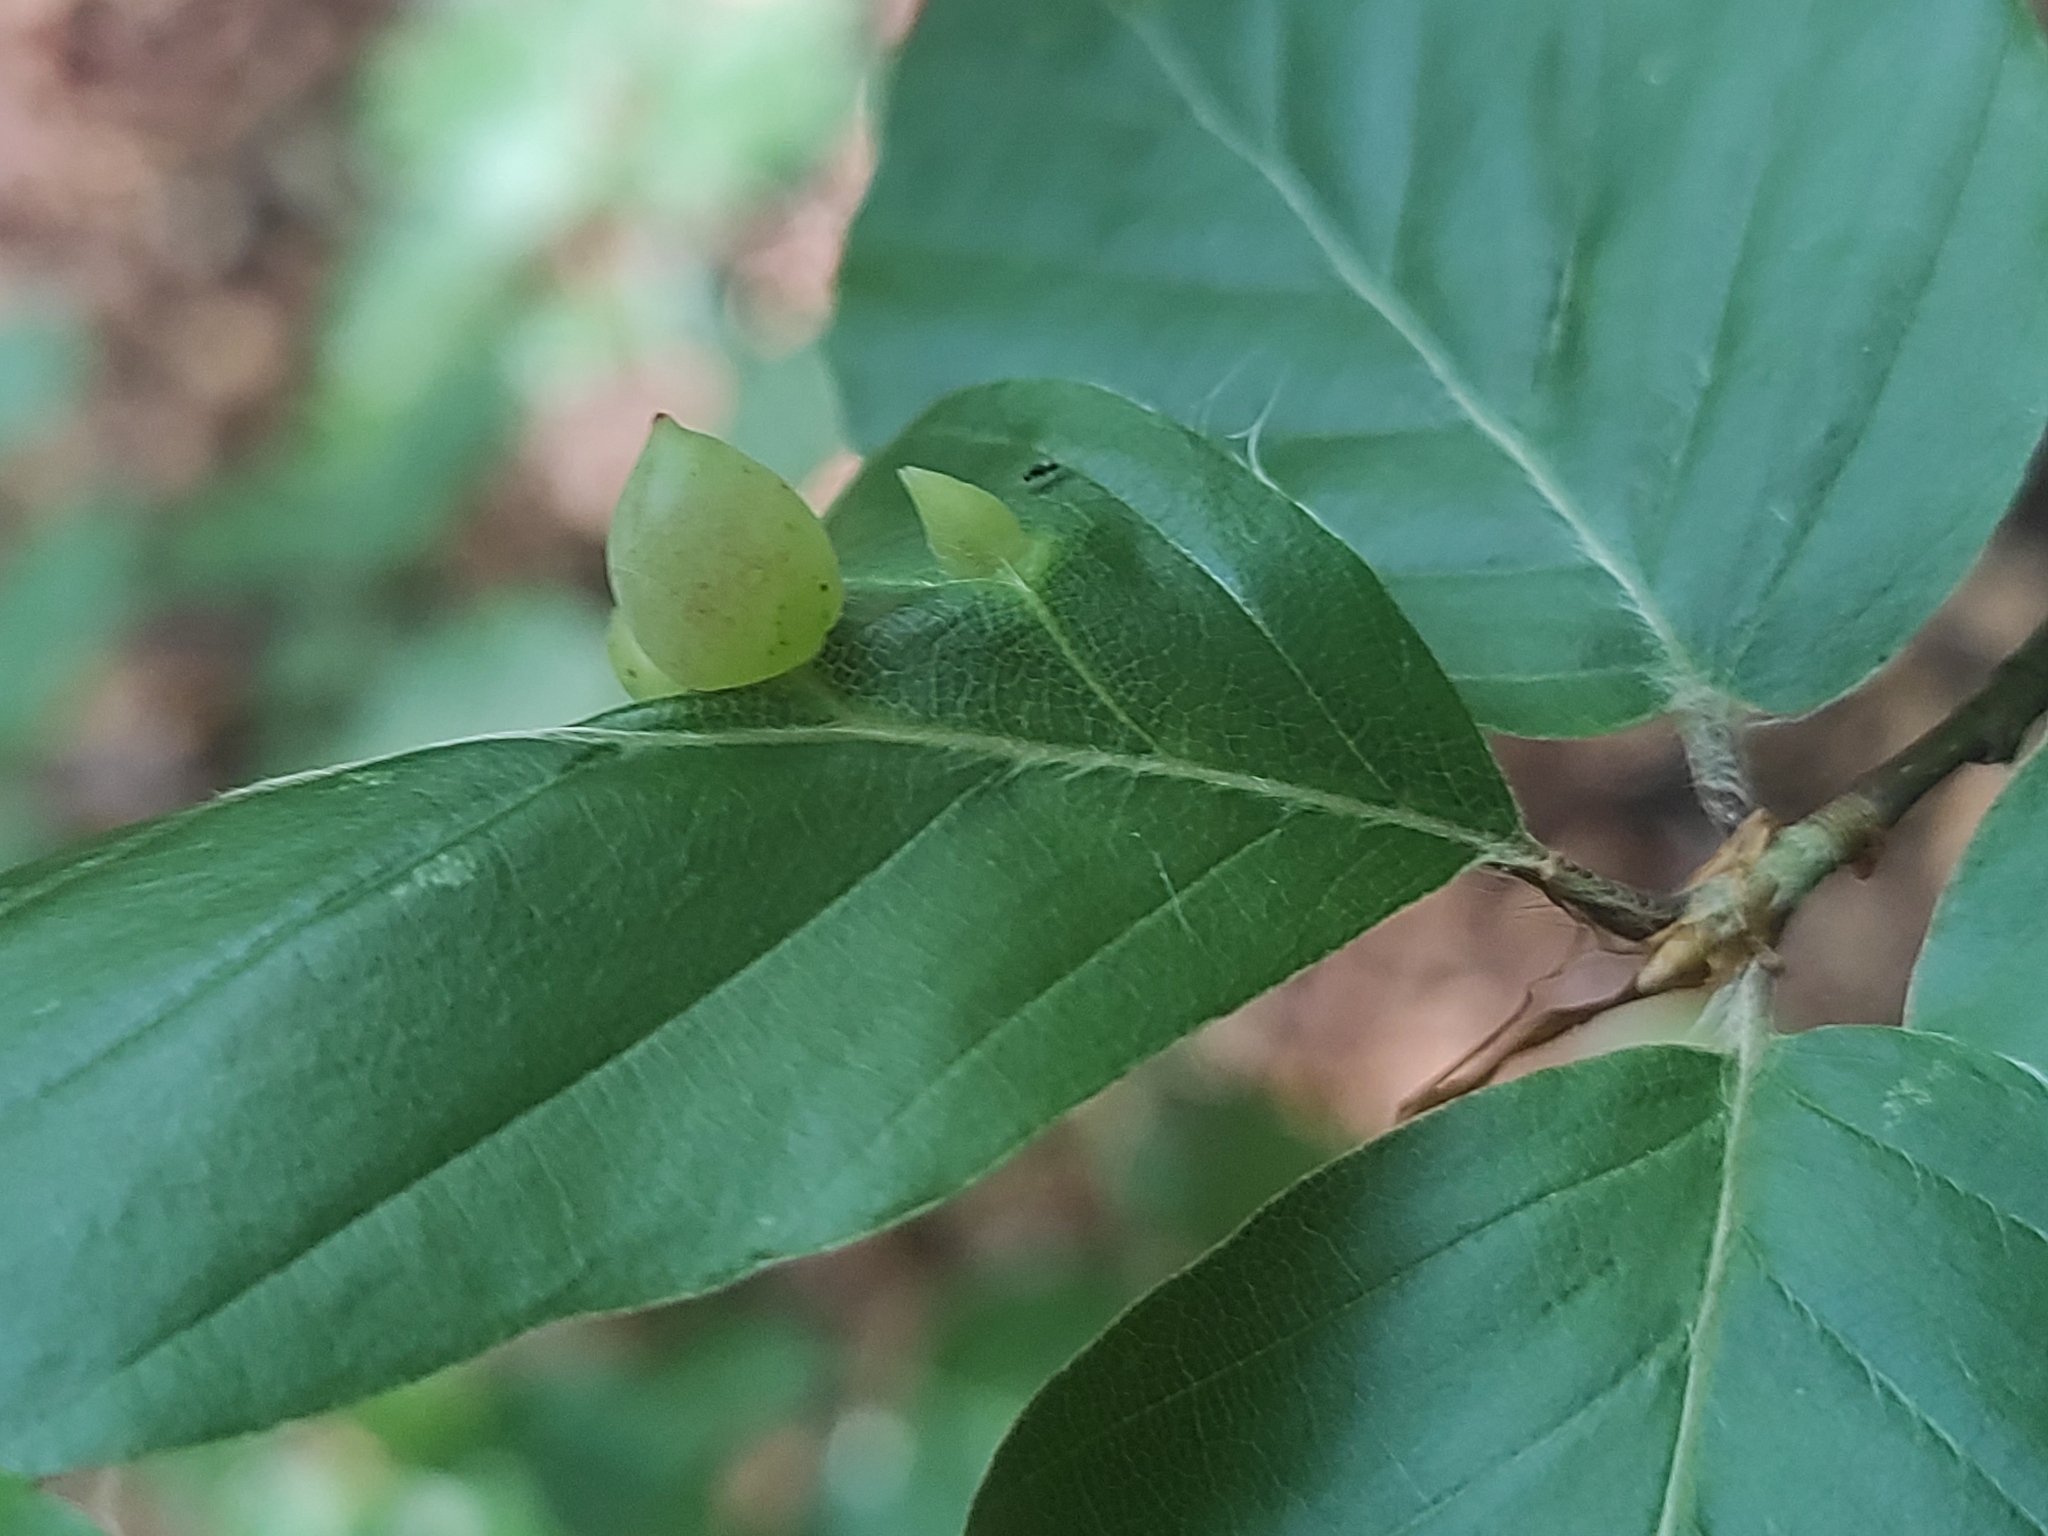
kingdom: Animalia
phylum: Arthropoda
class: Insecta
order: Diptera
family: Cecidomyiidae
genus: Mikiola
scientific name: Mikiola fagi
